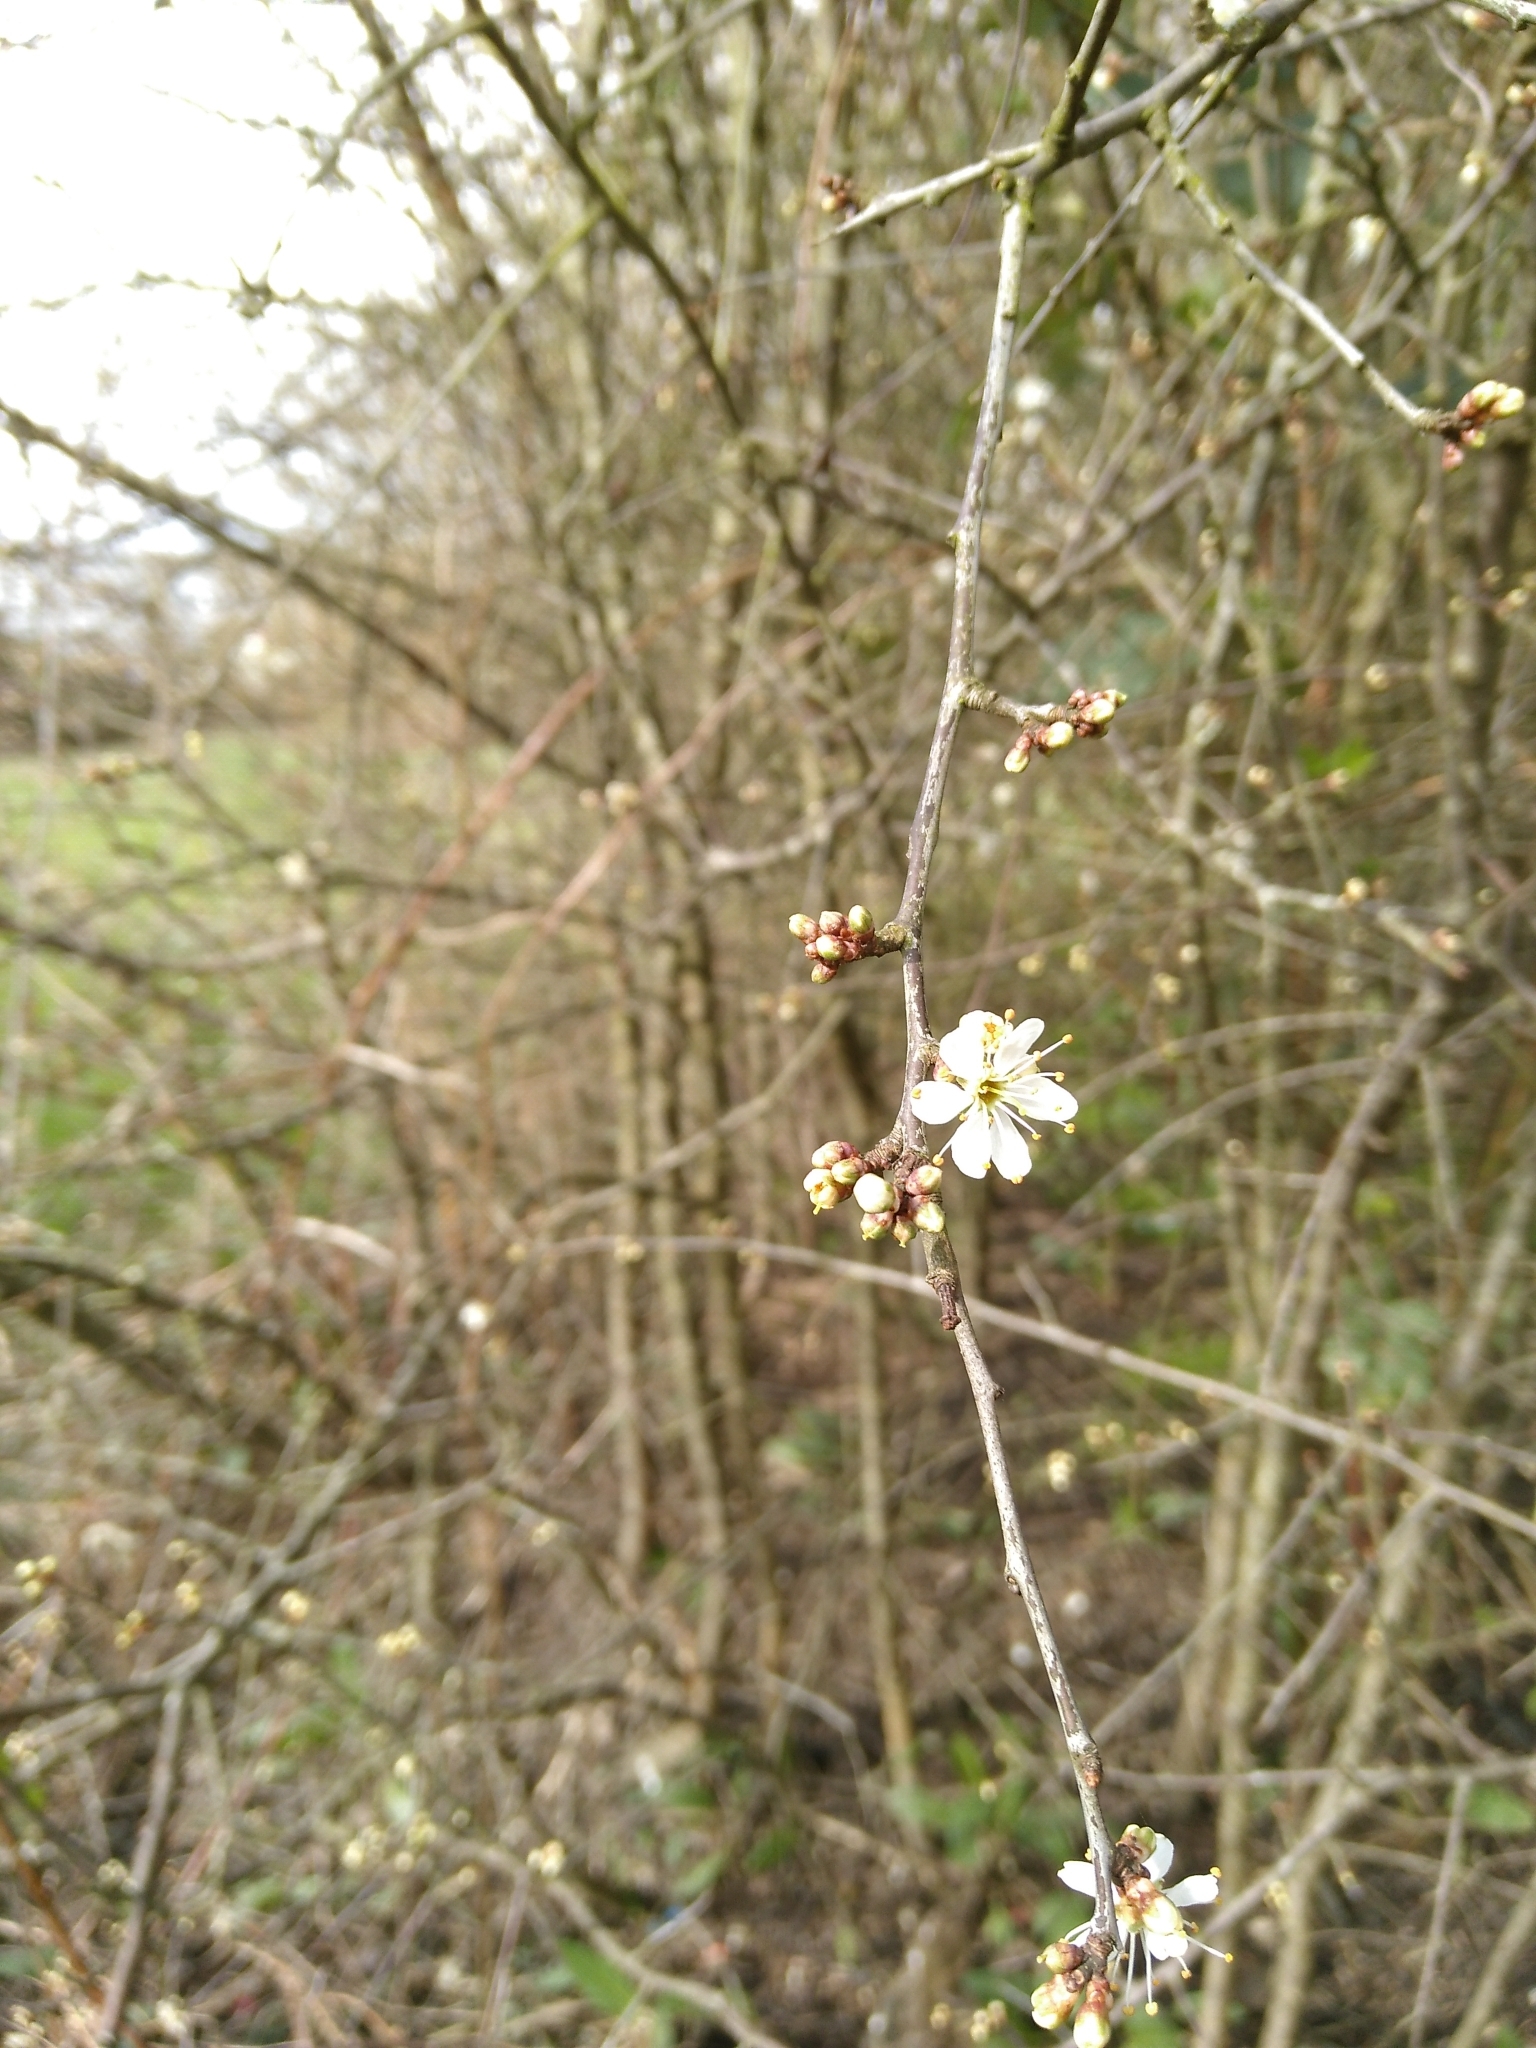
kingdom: Plantae
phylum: Tracheophyta
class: Magnoliopsida
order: Rosales
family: Rosaceae
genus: Prunus
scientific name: Prunus spinosa
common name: Blackthorn
